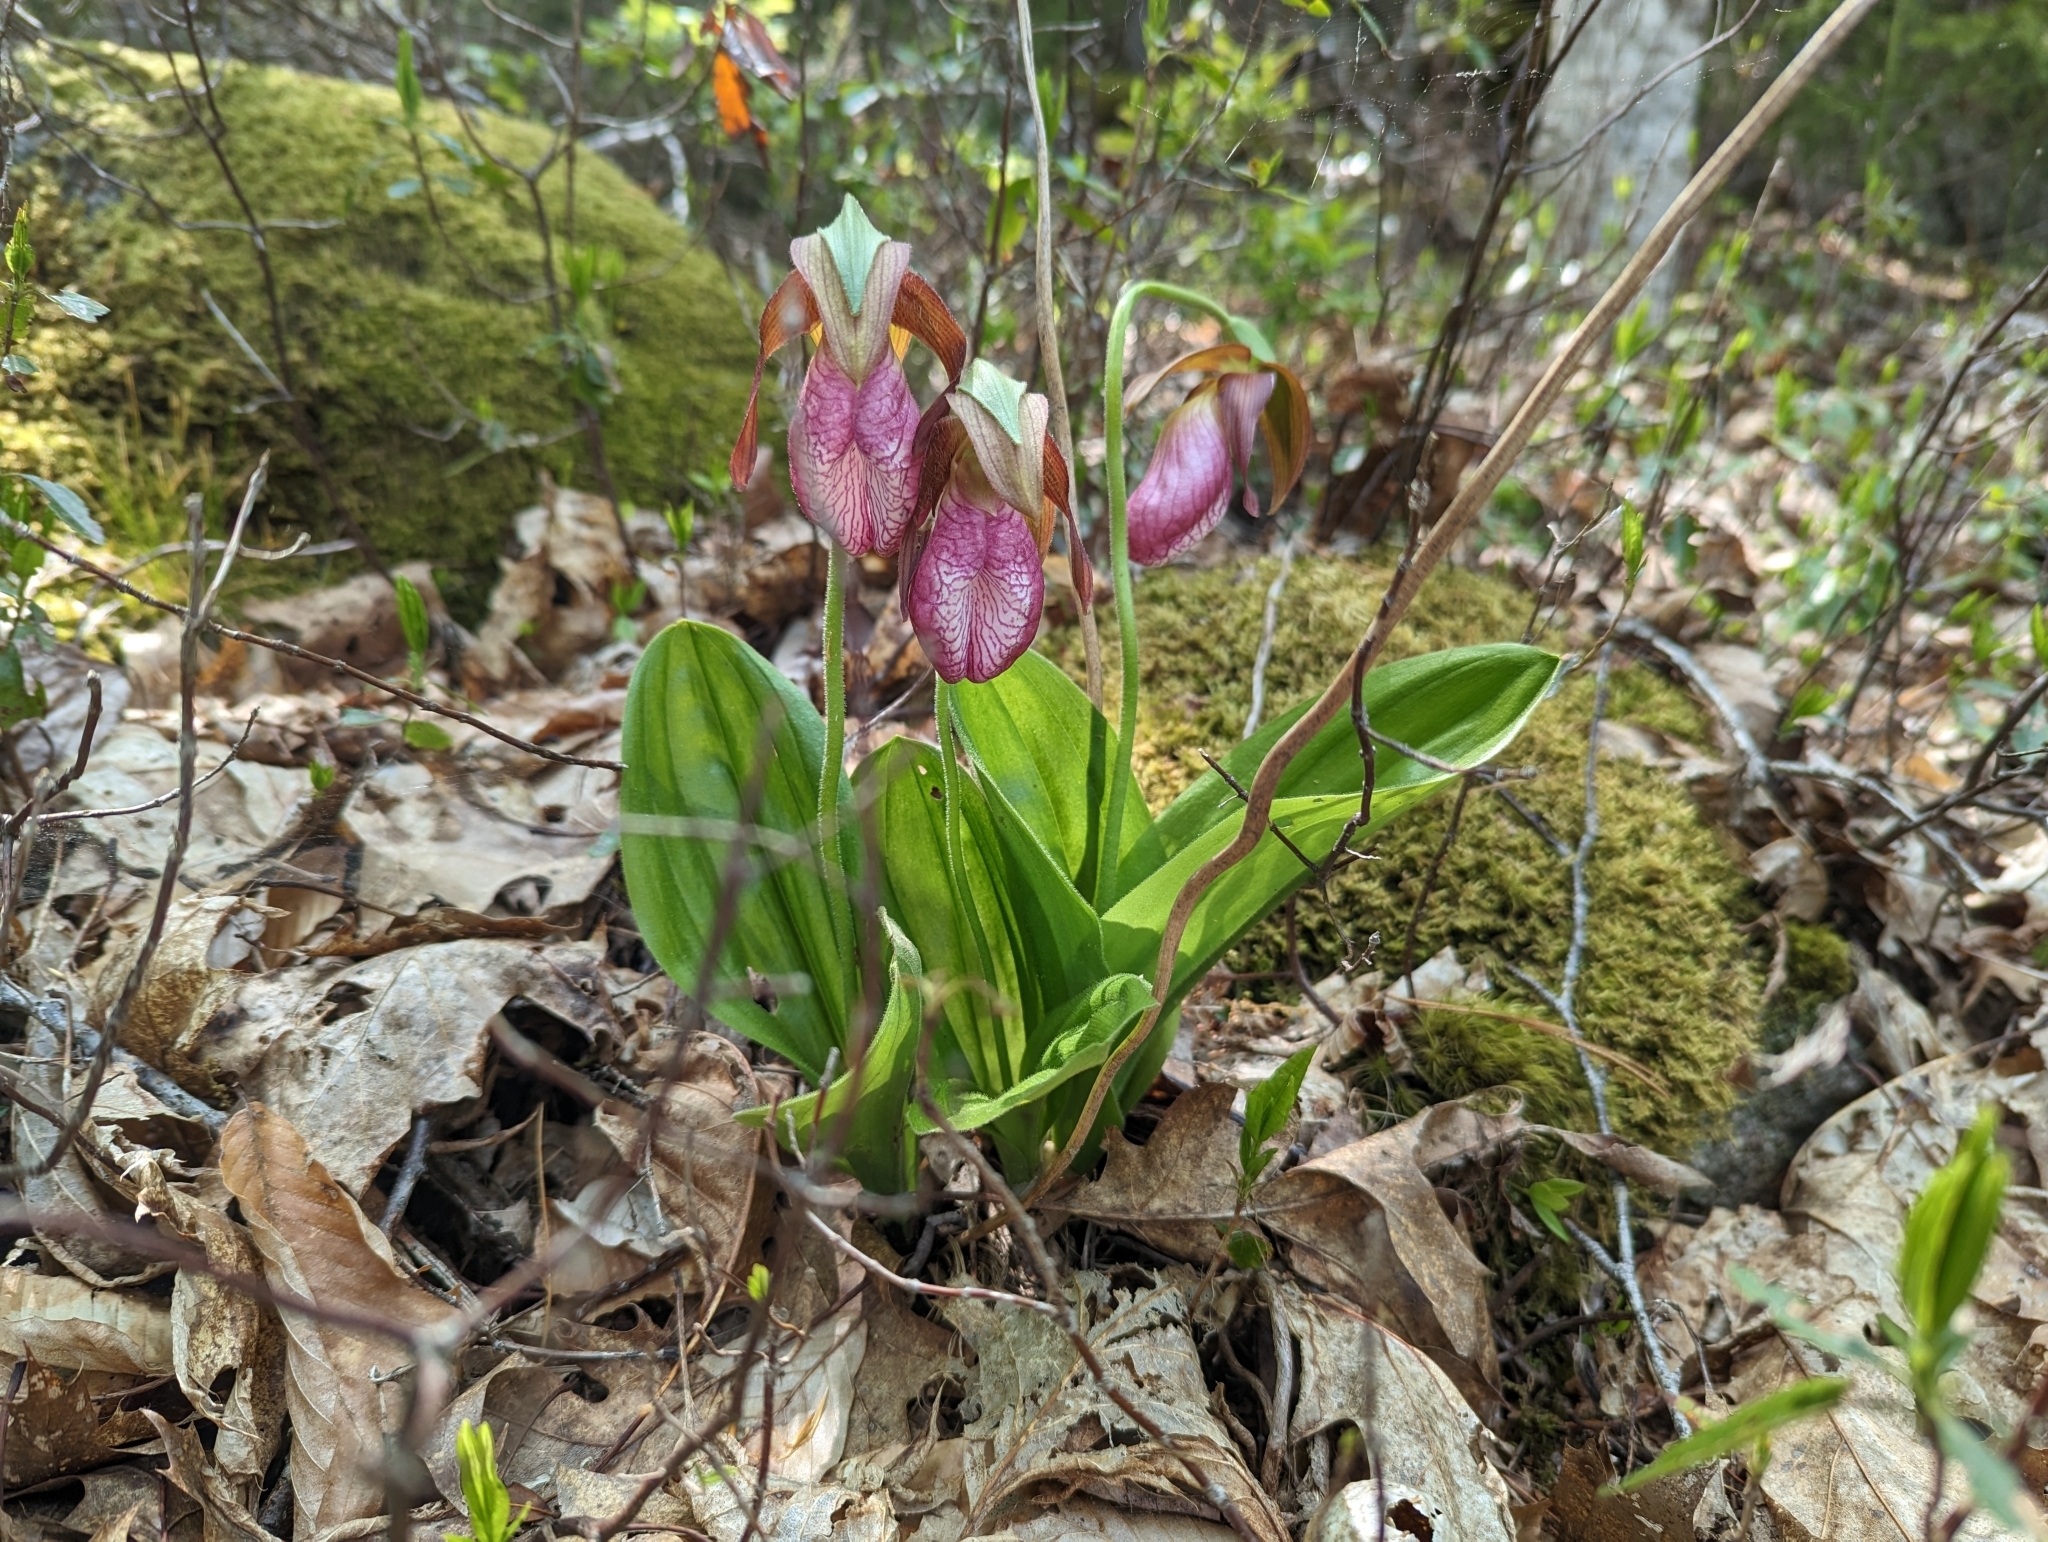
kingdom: Plantae
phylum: Tracheophyta
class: Liliopsida
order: Asparagales
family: Orchidaceae
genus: Cypripedium
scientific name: Cypripedium acaule
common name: Pink lady's-slipper
